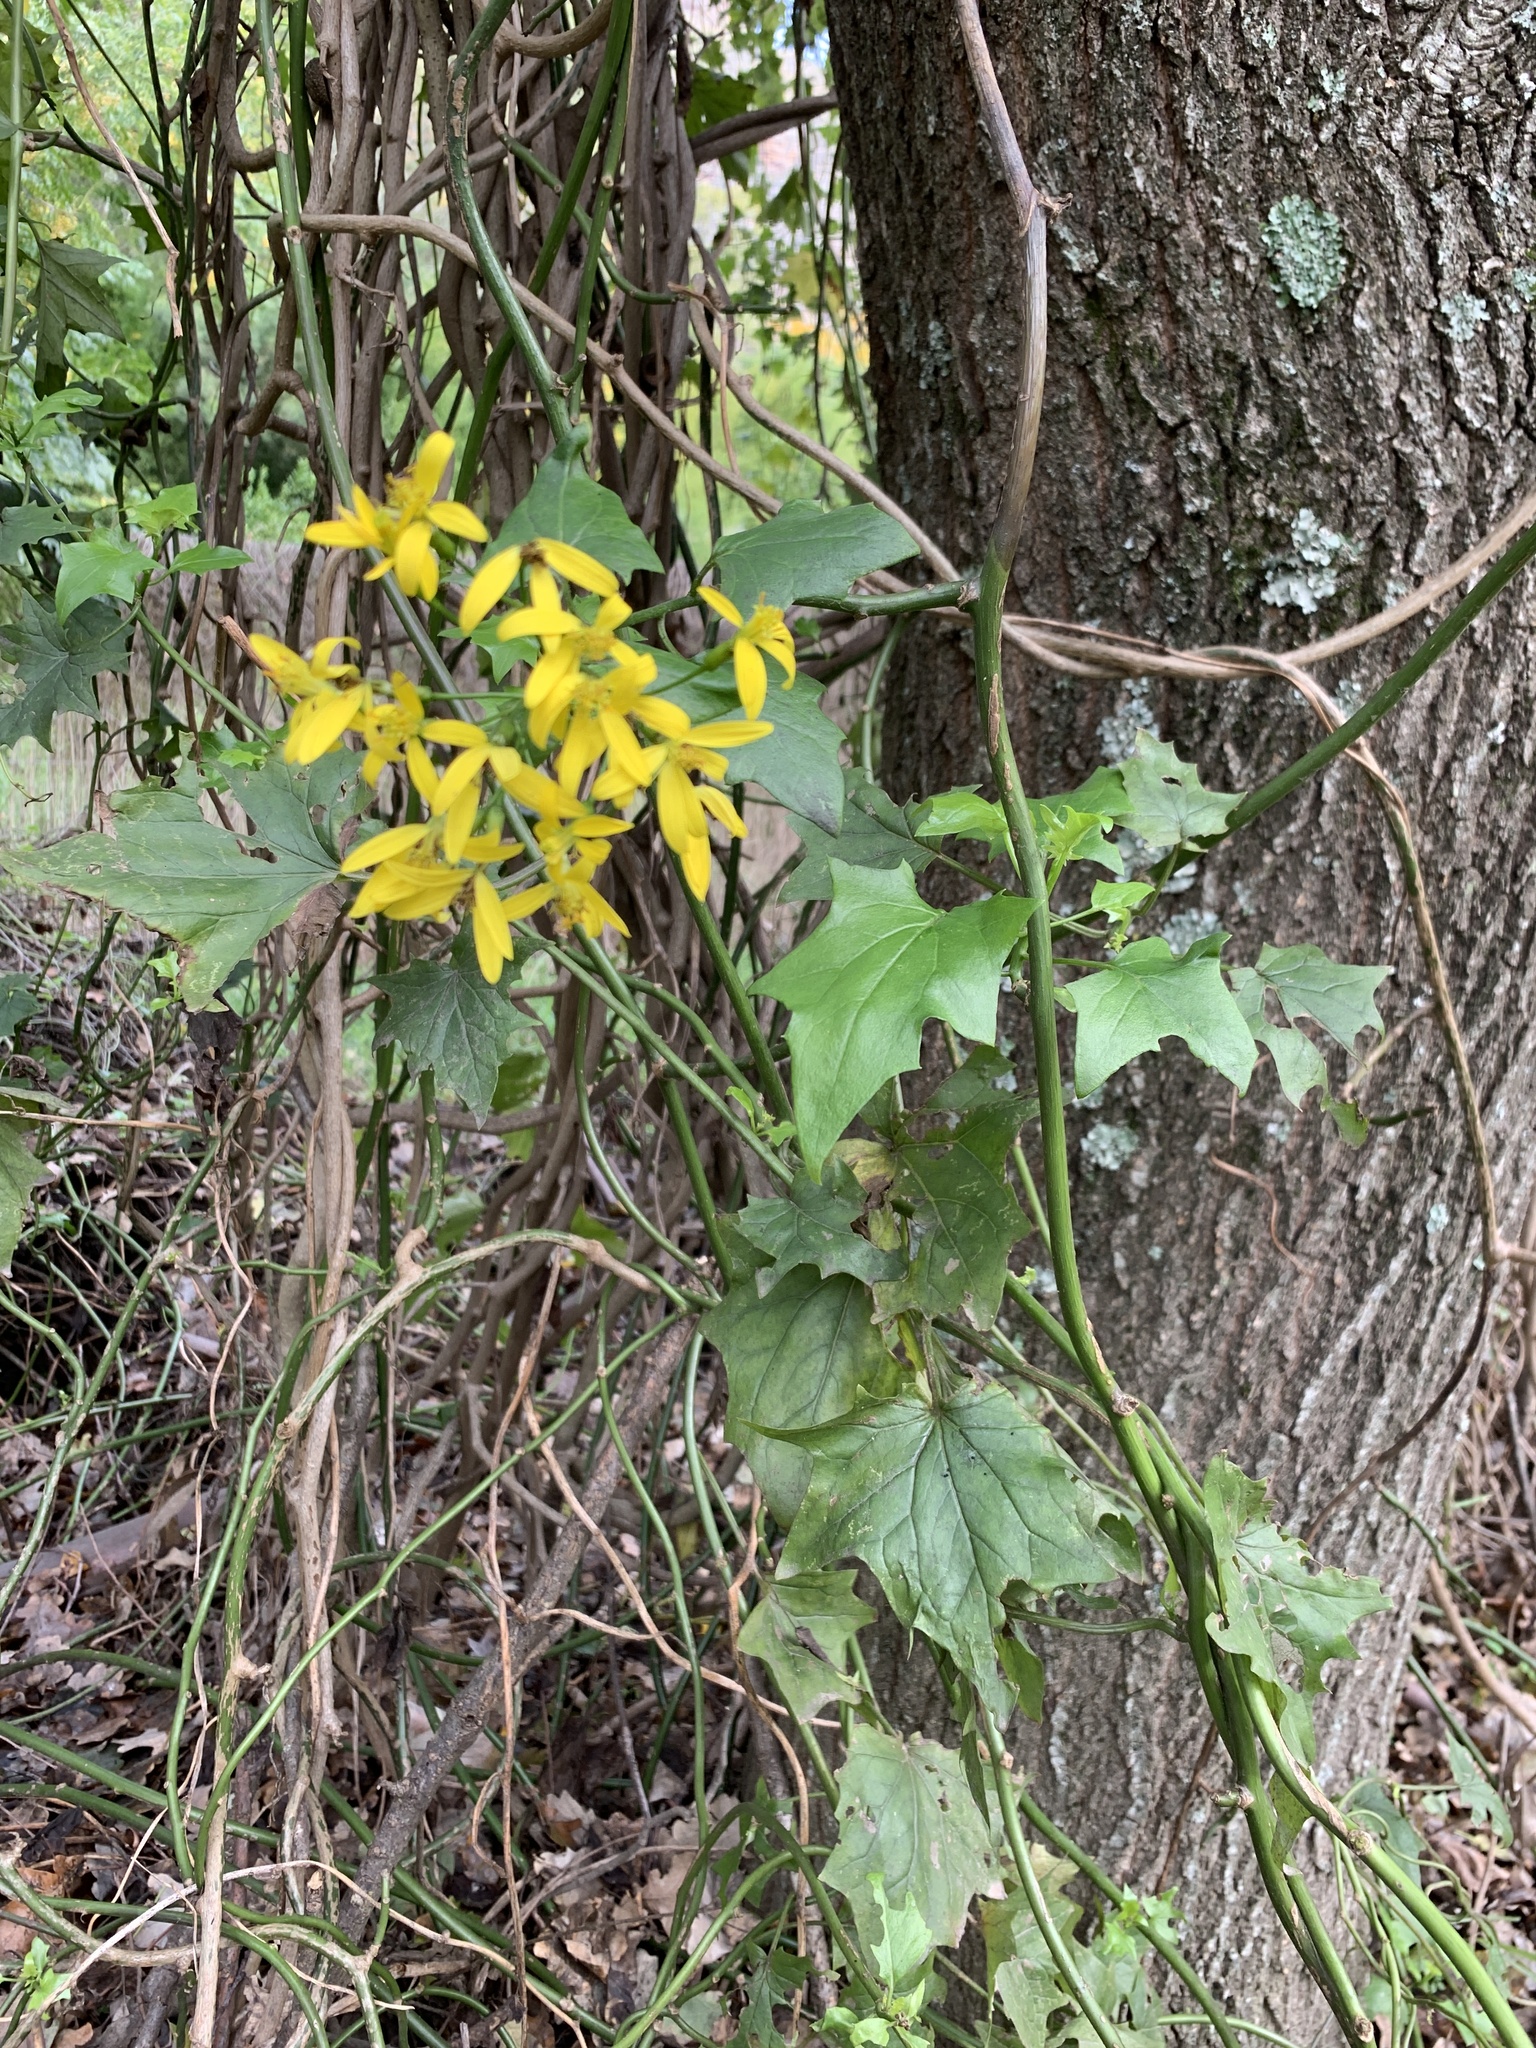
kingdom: Plantae
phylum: Tracheophyta
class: Magnoliopsida
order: Asterales
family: Asteraceae
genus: Senecio
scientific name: Senecio tamoides
